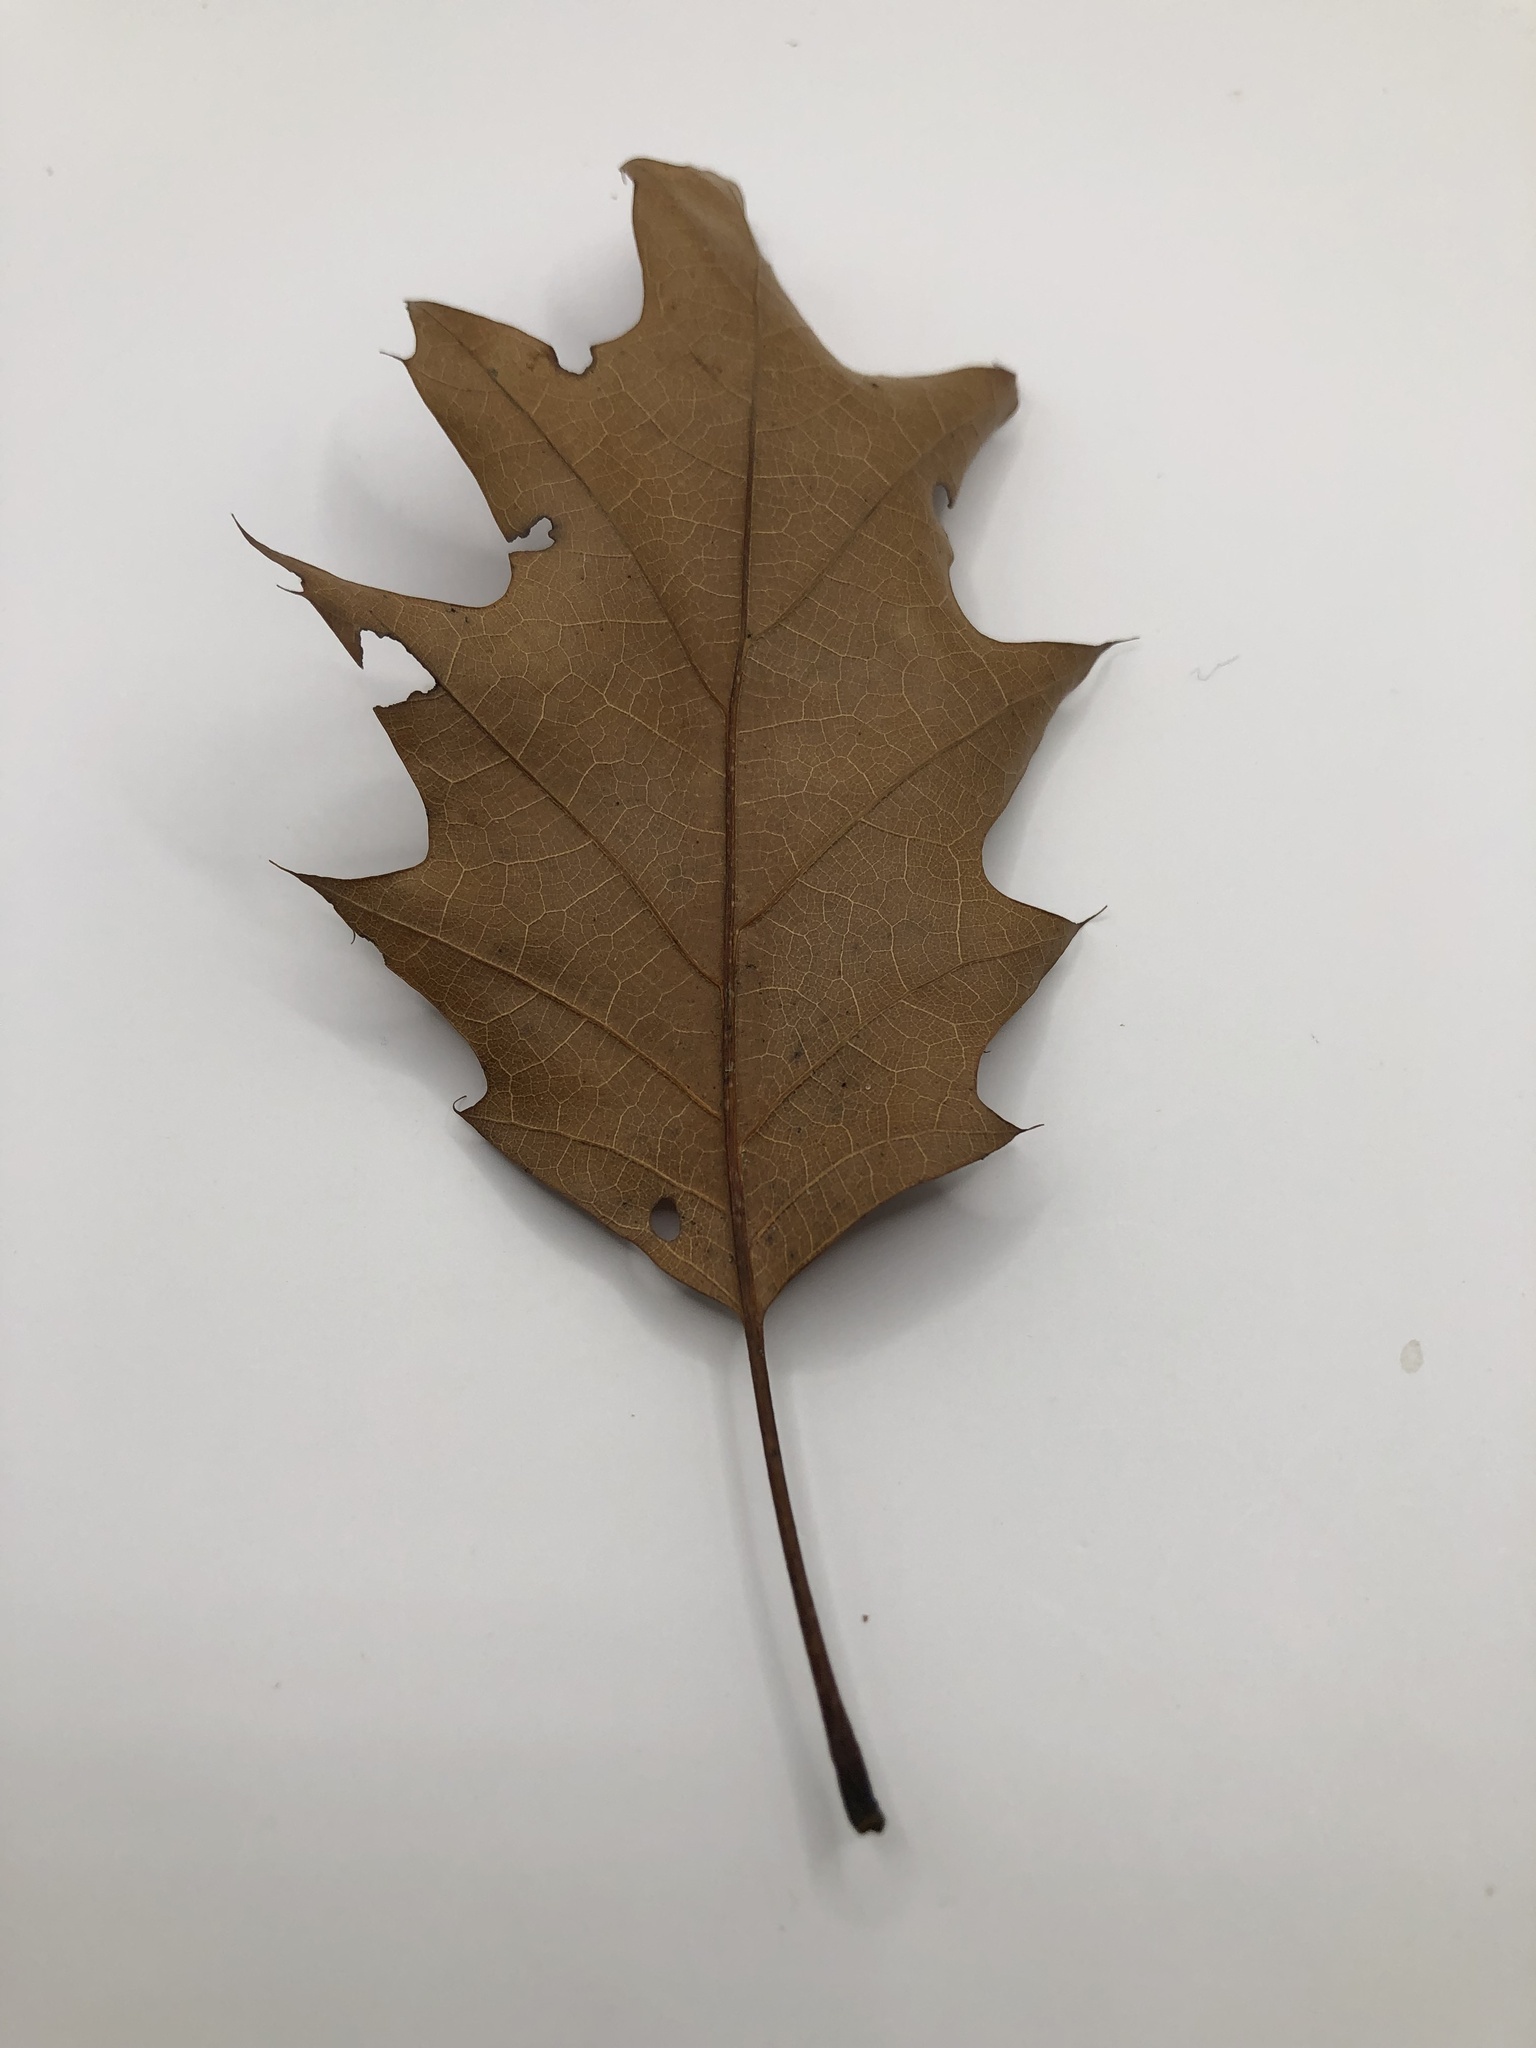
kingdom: Plantae
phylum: Tracheophyta
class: Magnoliopsida
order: Fagales
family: Fagaceae
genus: Quercus
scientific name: Quercus rubra
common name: Red oak
